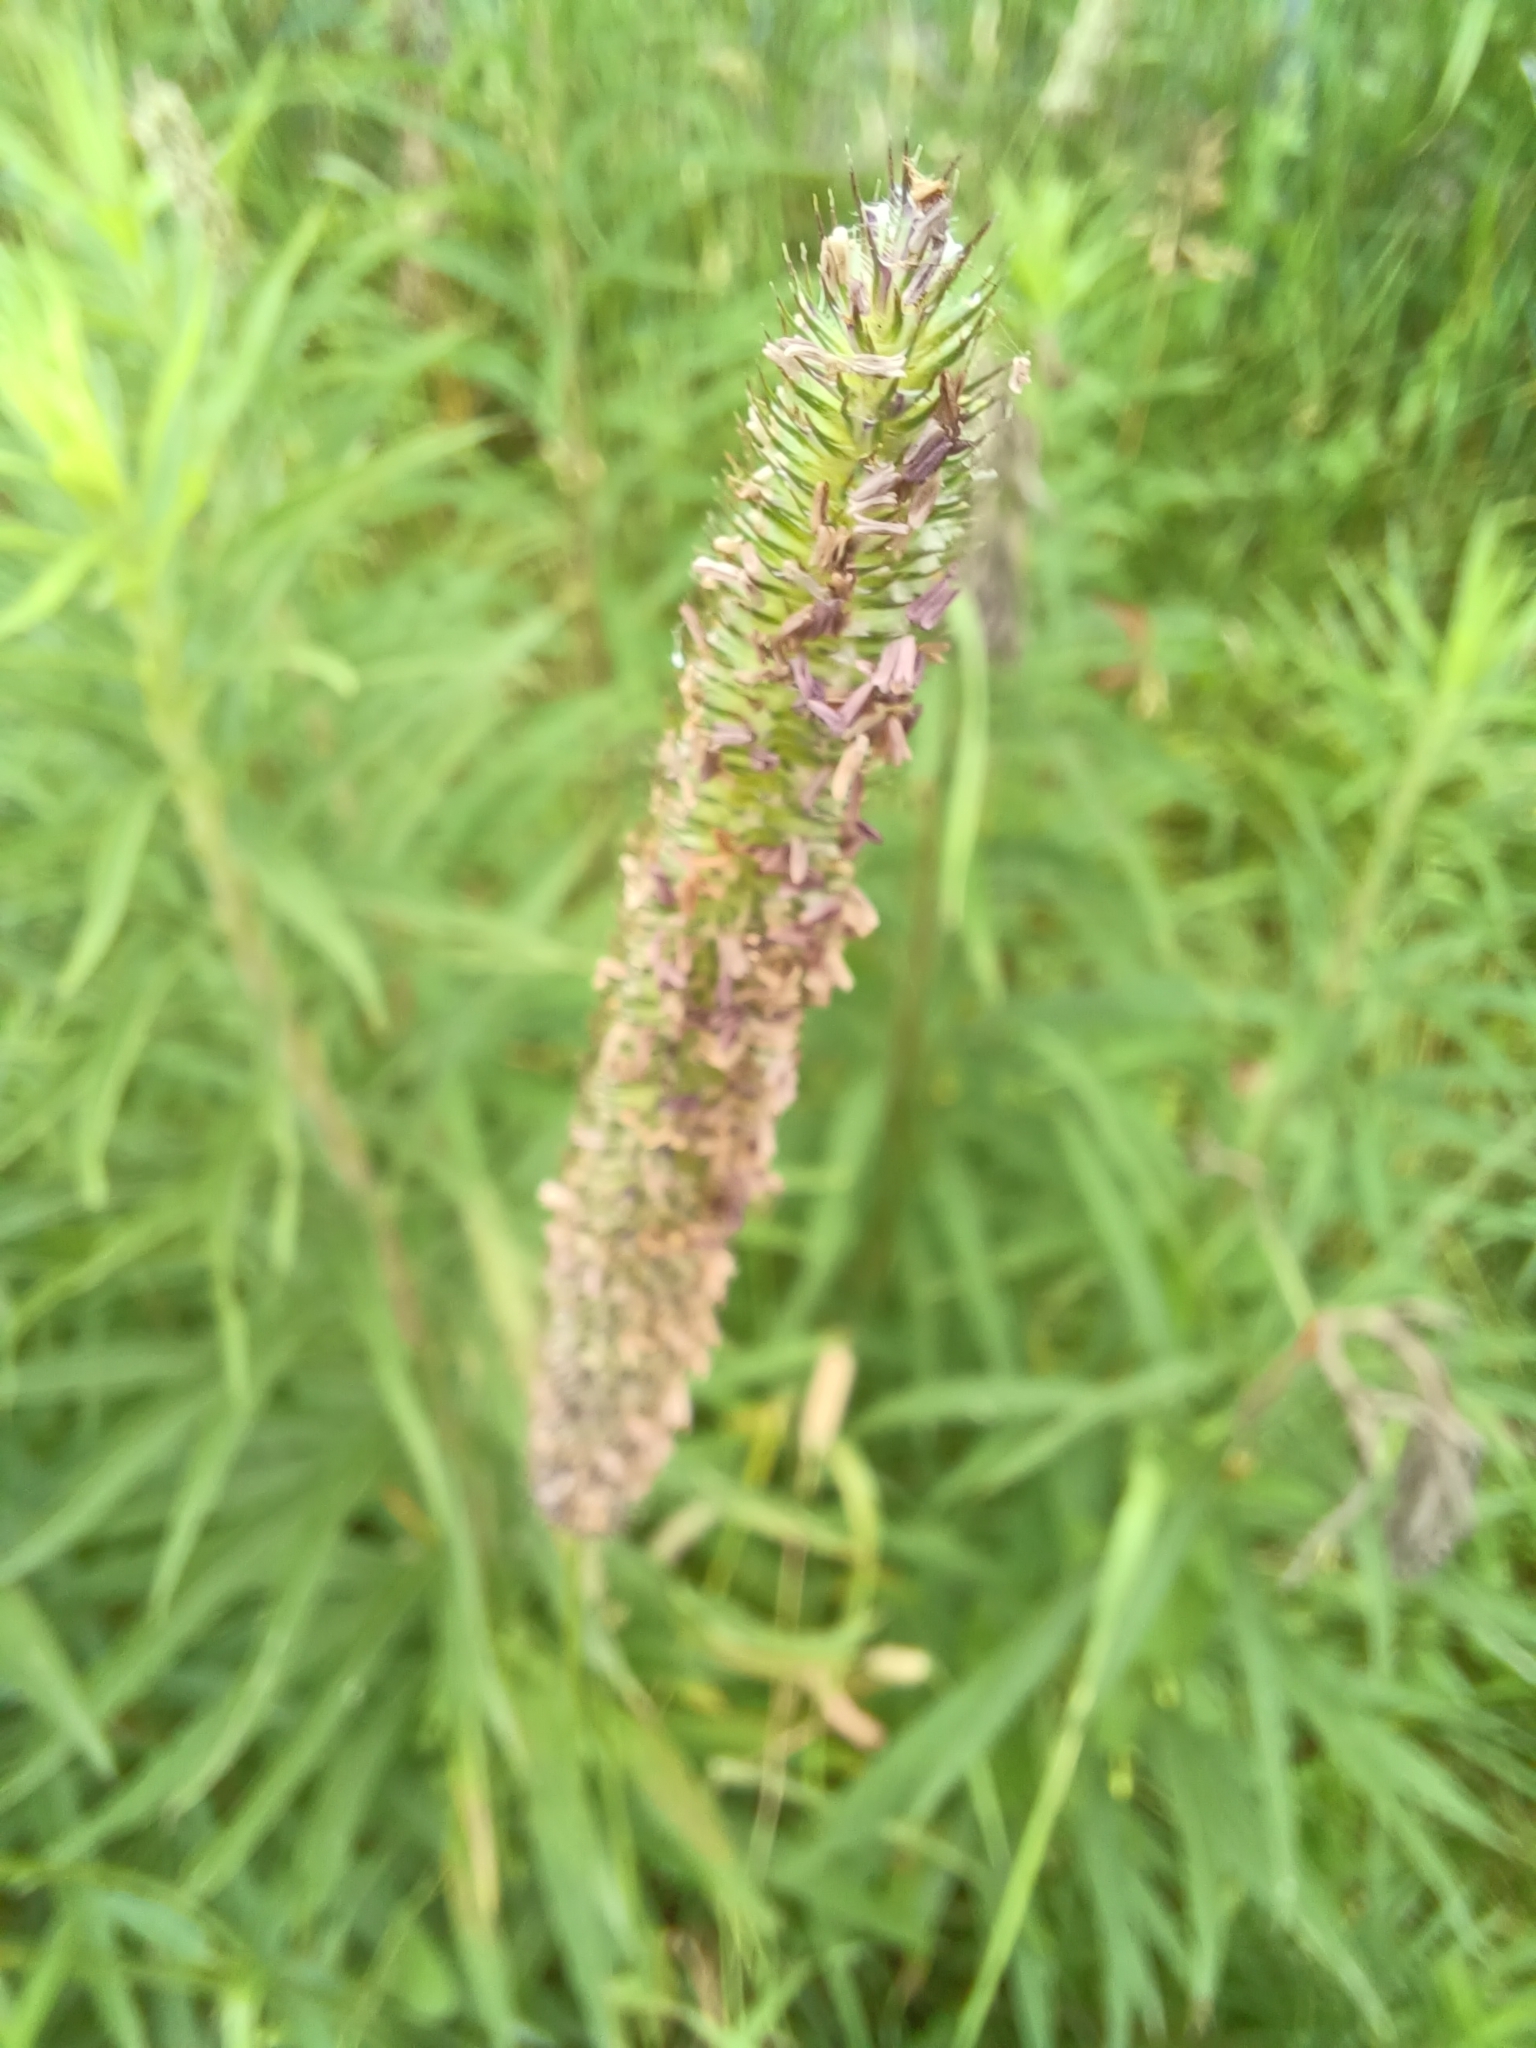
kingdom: Plantae
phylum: Tracheophyta
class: Liliopsida
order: Poales
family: Poaceae
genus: Phleum
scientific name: Phleum pratense
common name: Timothy grass
